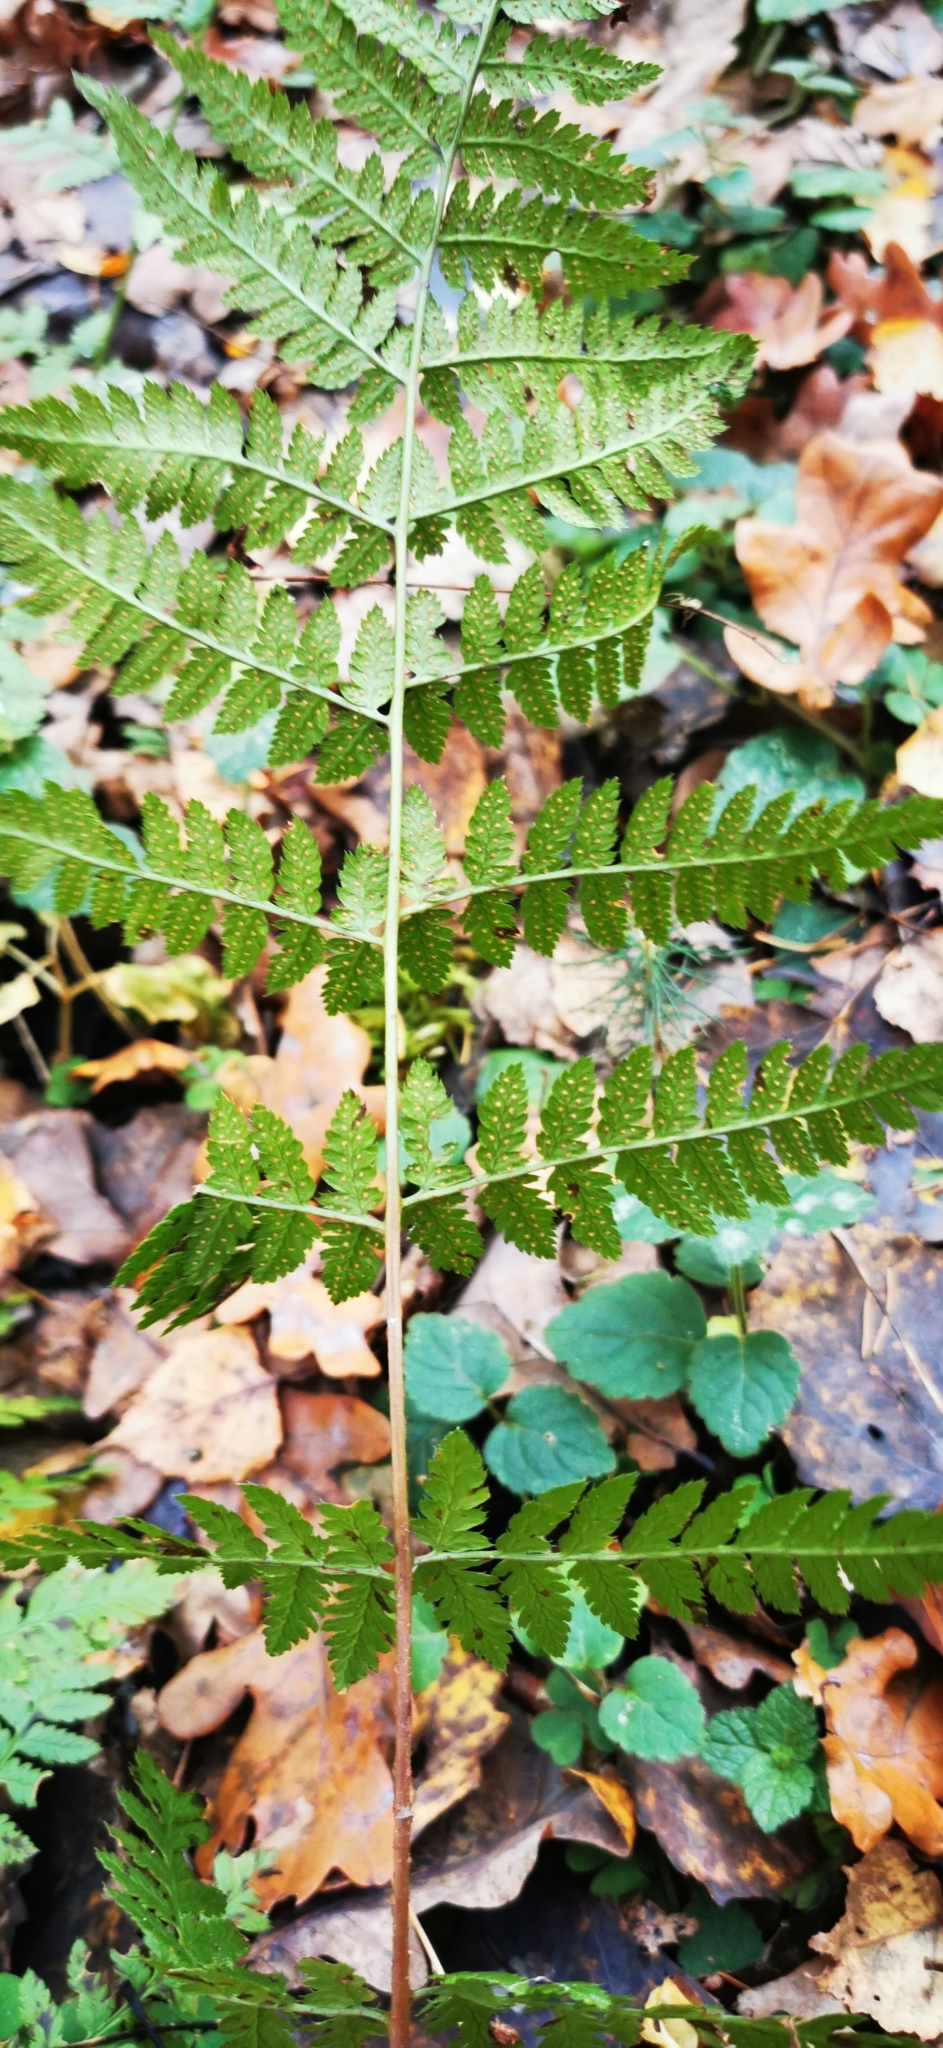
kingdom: Plantae
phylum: Tracheophyta
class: Polypodiopsida
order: Polypodiales
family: Dryopteridaceae
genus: Dryopteris
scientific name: Dryopteris carthusiana
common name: Narrow buckler-fern
